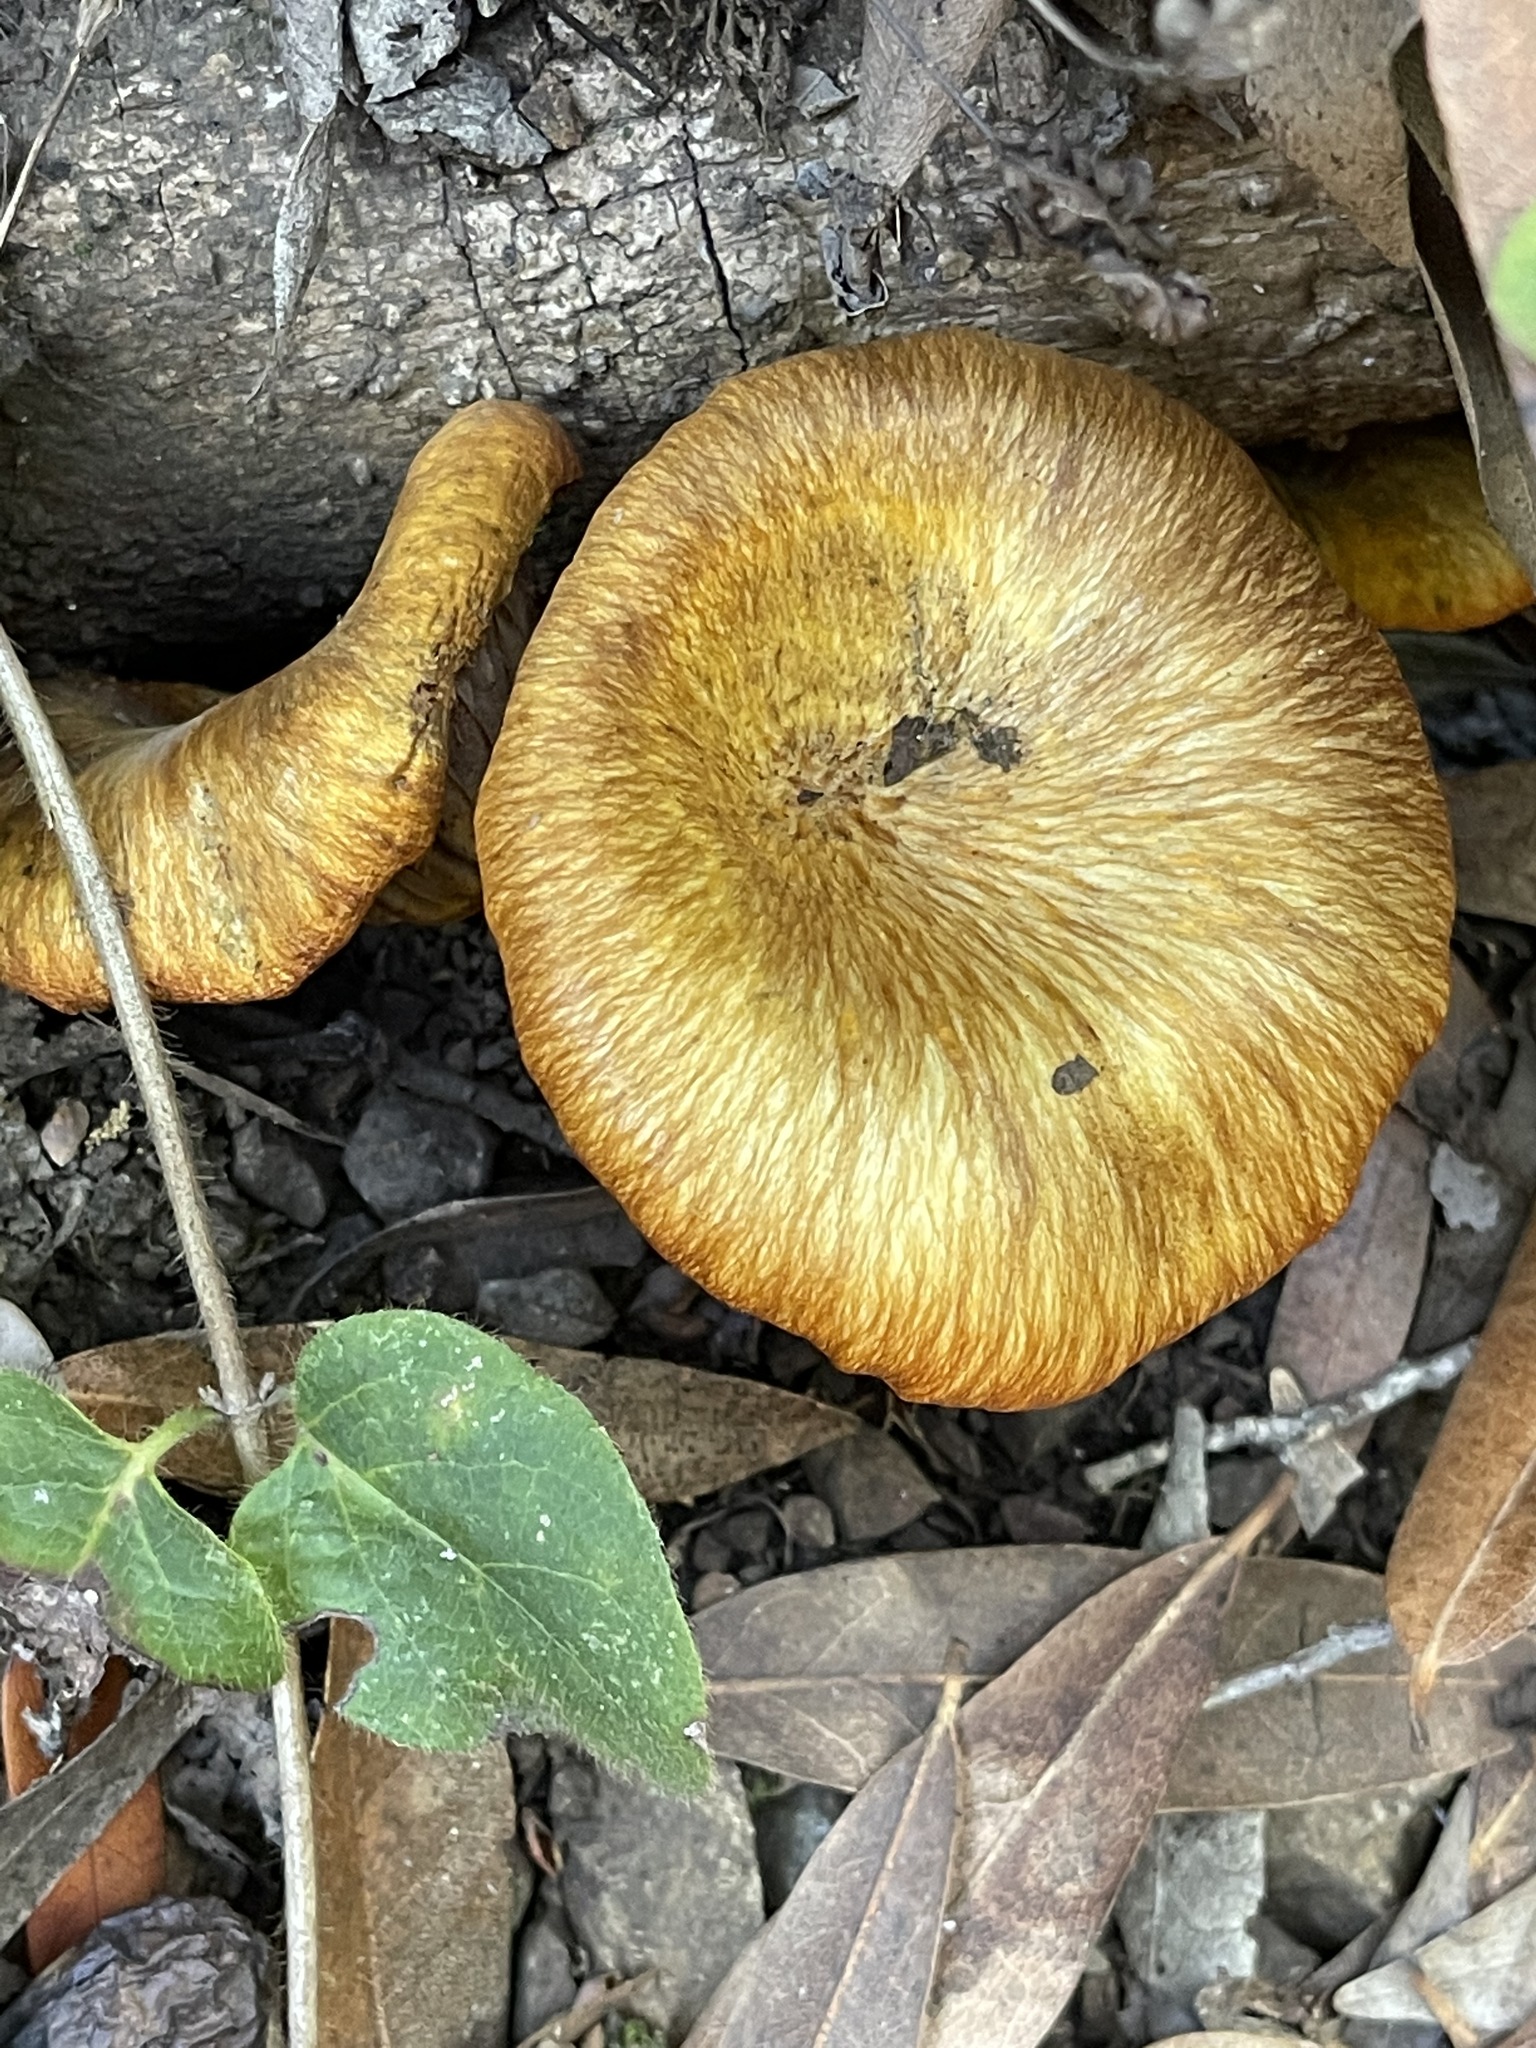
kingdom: Fungi
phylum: Basidiomycota
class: Agaricomycetes
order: Agaricales
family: Omphalotaceae
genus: Omphalotus
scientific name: Omphalotus olivascens
